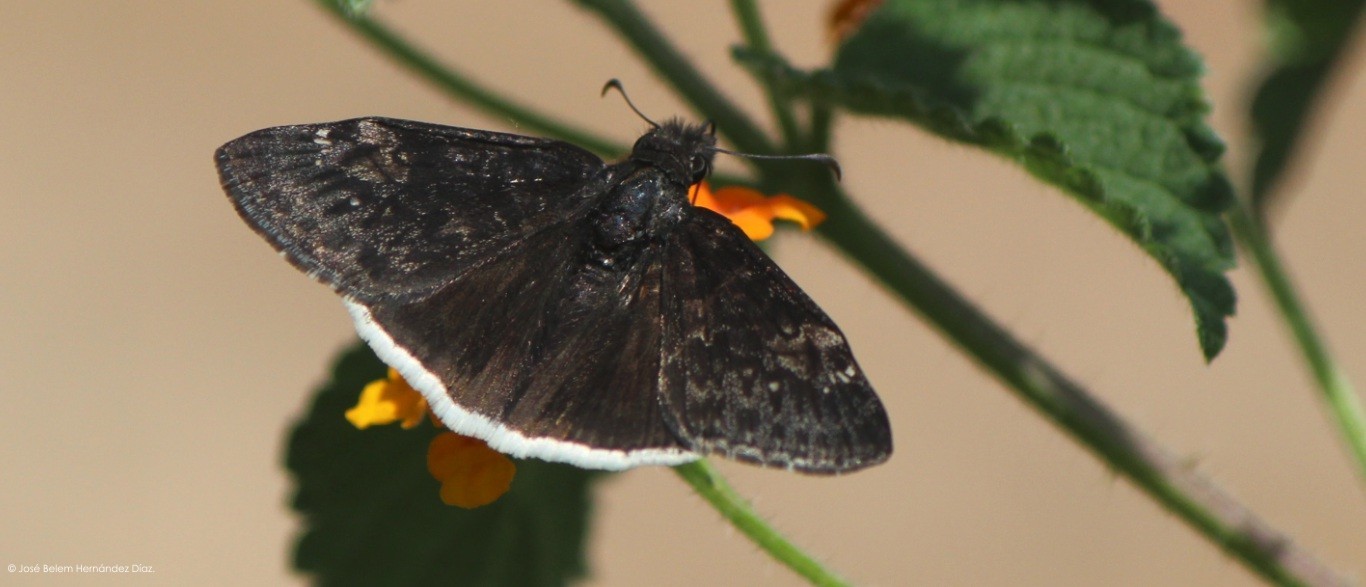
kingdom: Animalia
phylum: Arthropoda
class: Insecta
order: Lepidoptera
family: Hesperiidae
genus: Erynnis
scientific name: Erynnis funeralis
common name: Funereal duskywing
